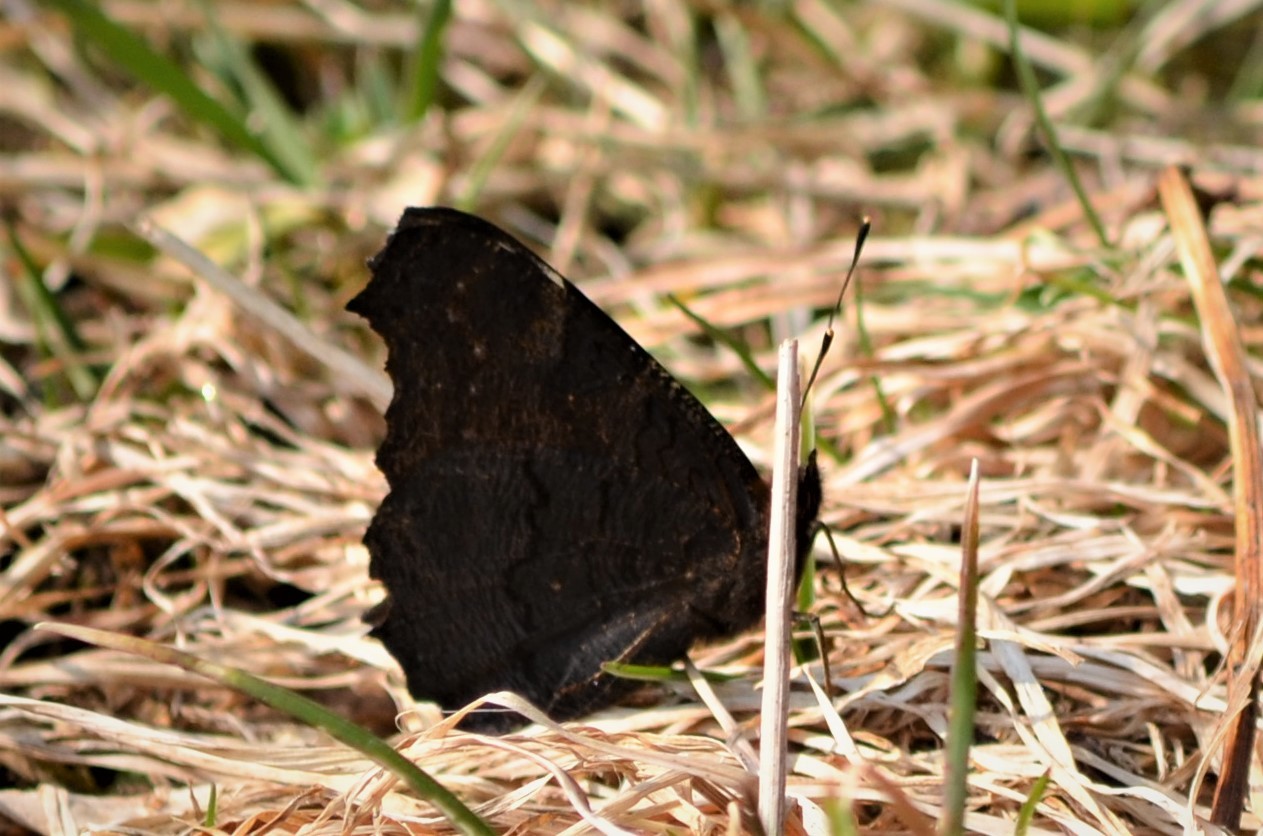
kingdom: Animalia
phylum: Arthropoda
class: Insecta
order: Lepidoptera
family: Nymphalidae
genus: Aglais
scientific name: Aglais io
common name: Peacock
